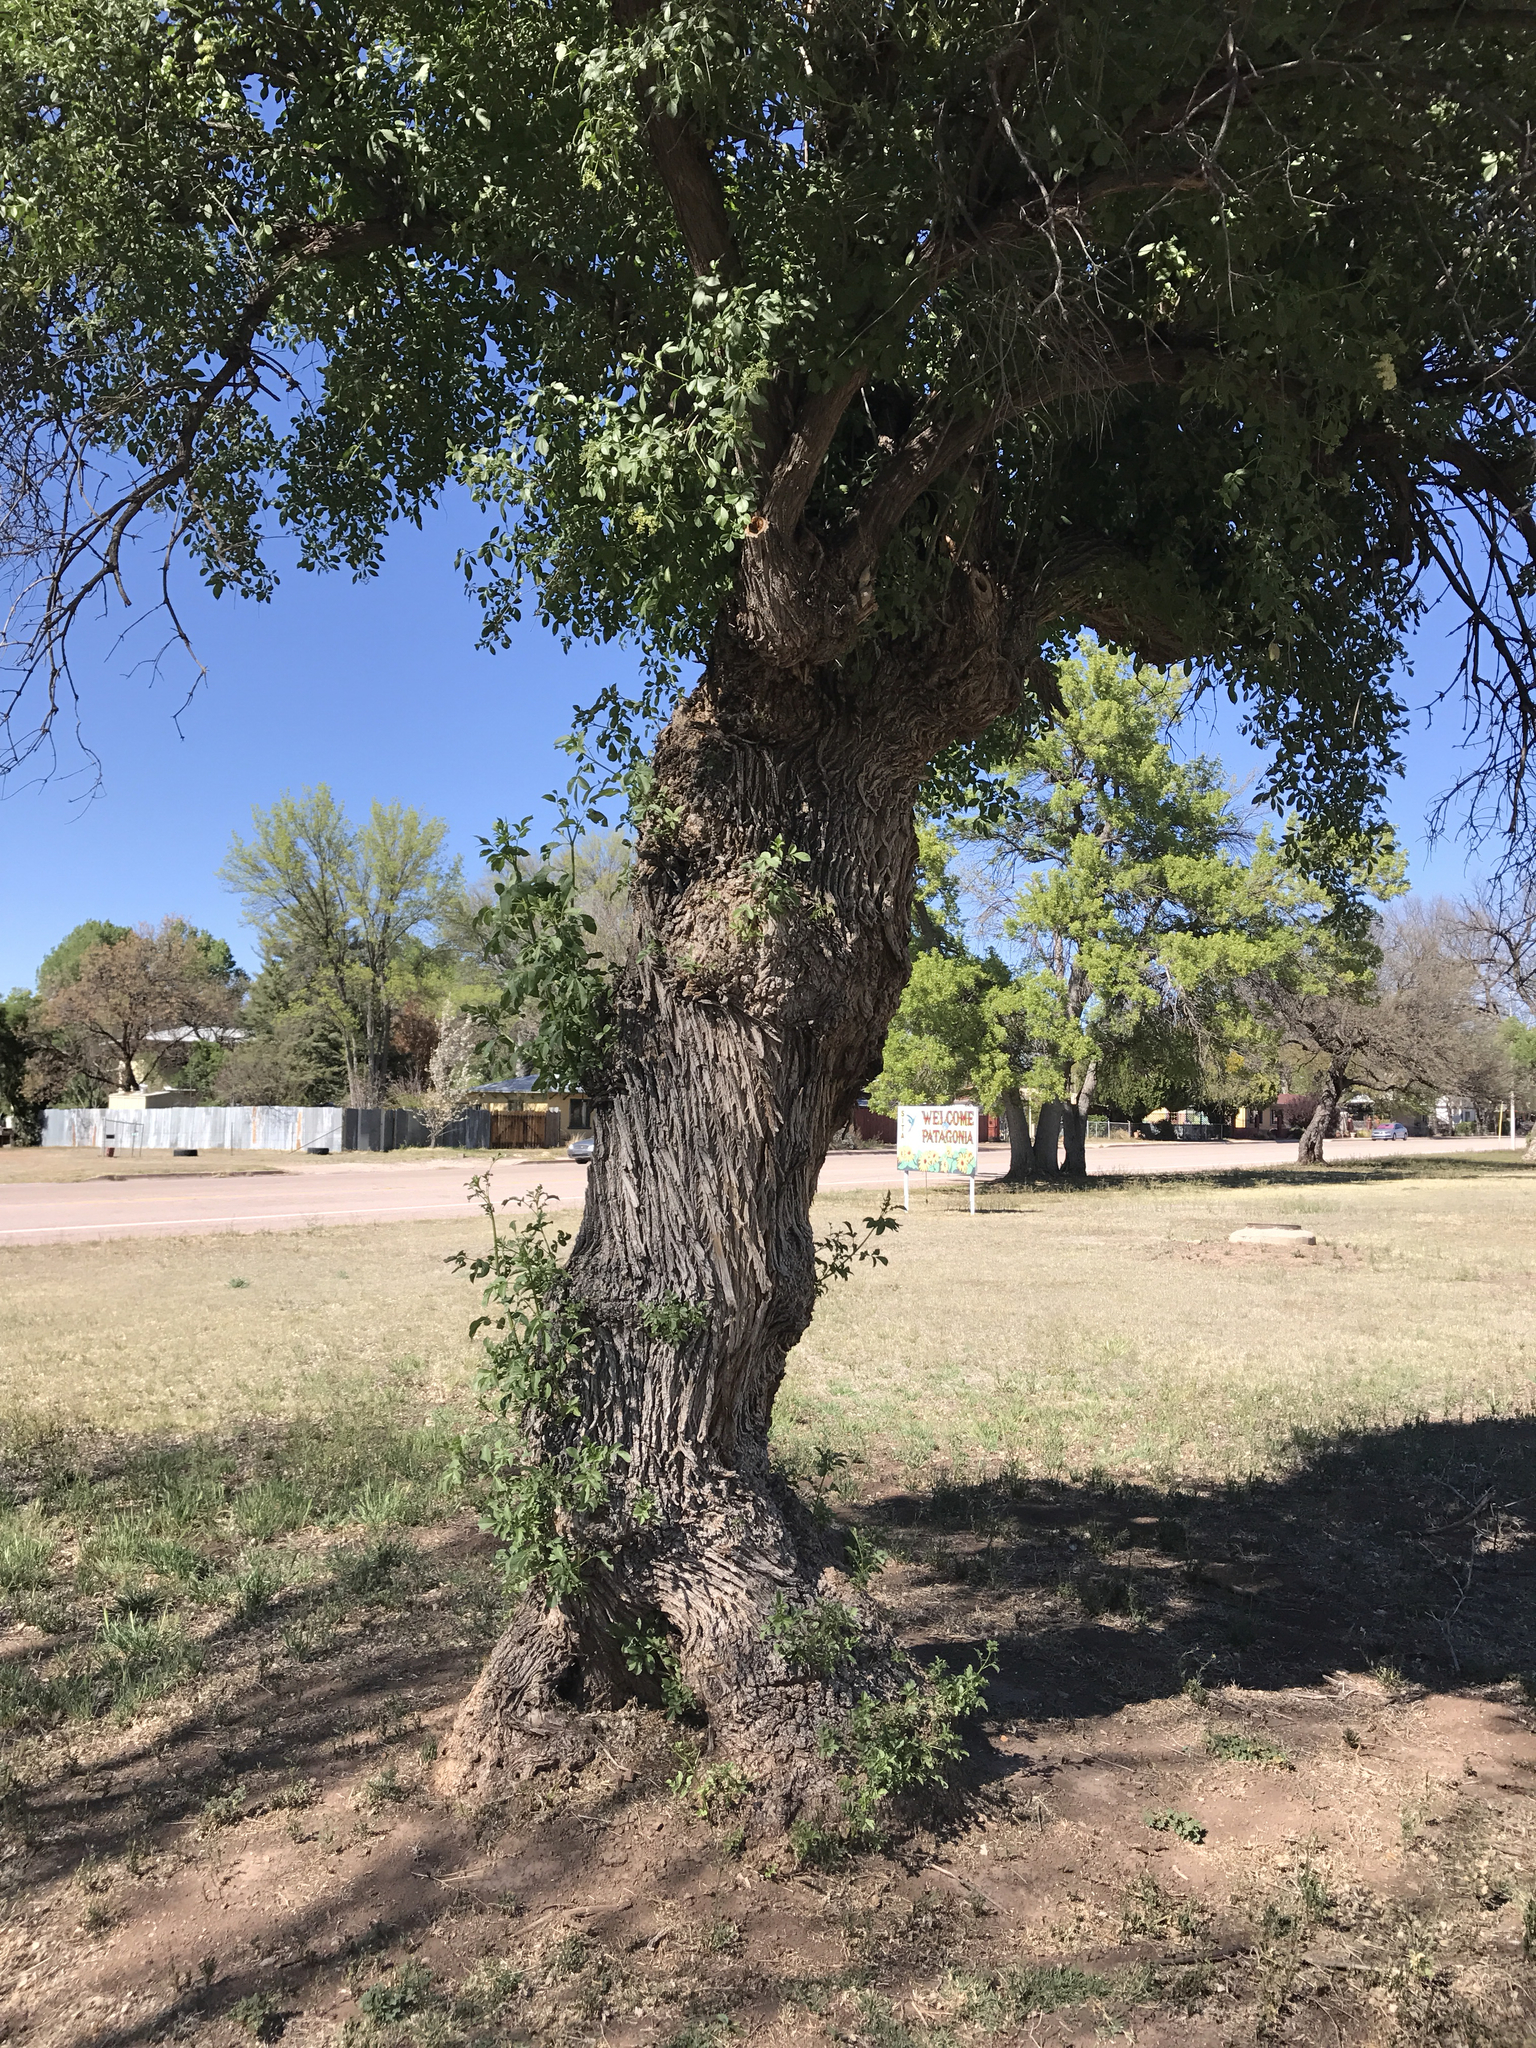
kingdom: Plantae
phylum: Tracheophyta
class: Magnoliopsida
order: Dipsacales
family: Viburnaceae
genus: Sambucus
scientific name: Sambucus cerulea
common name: Blue elder
